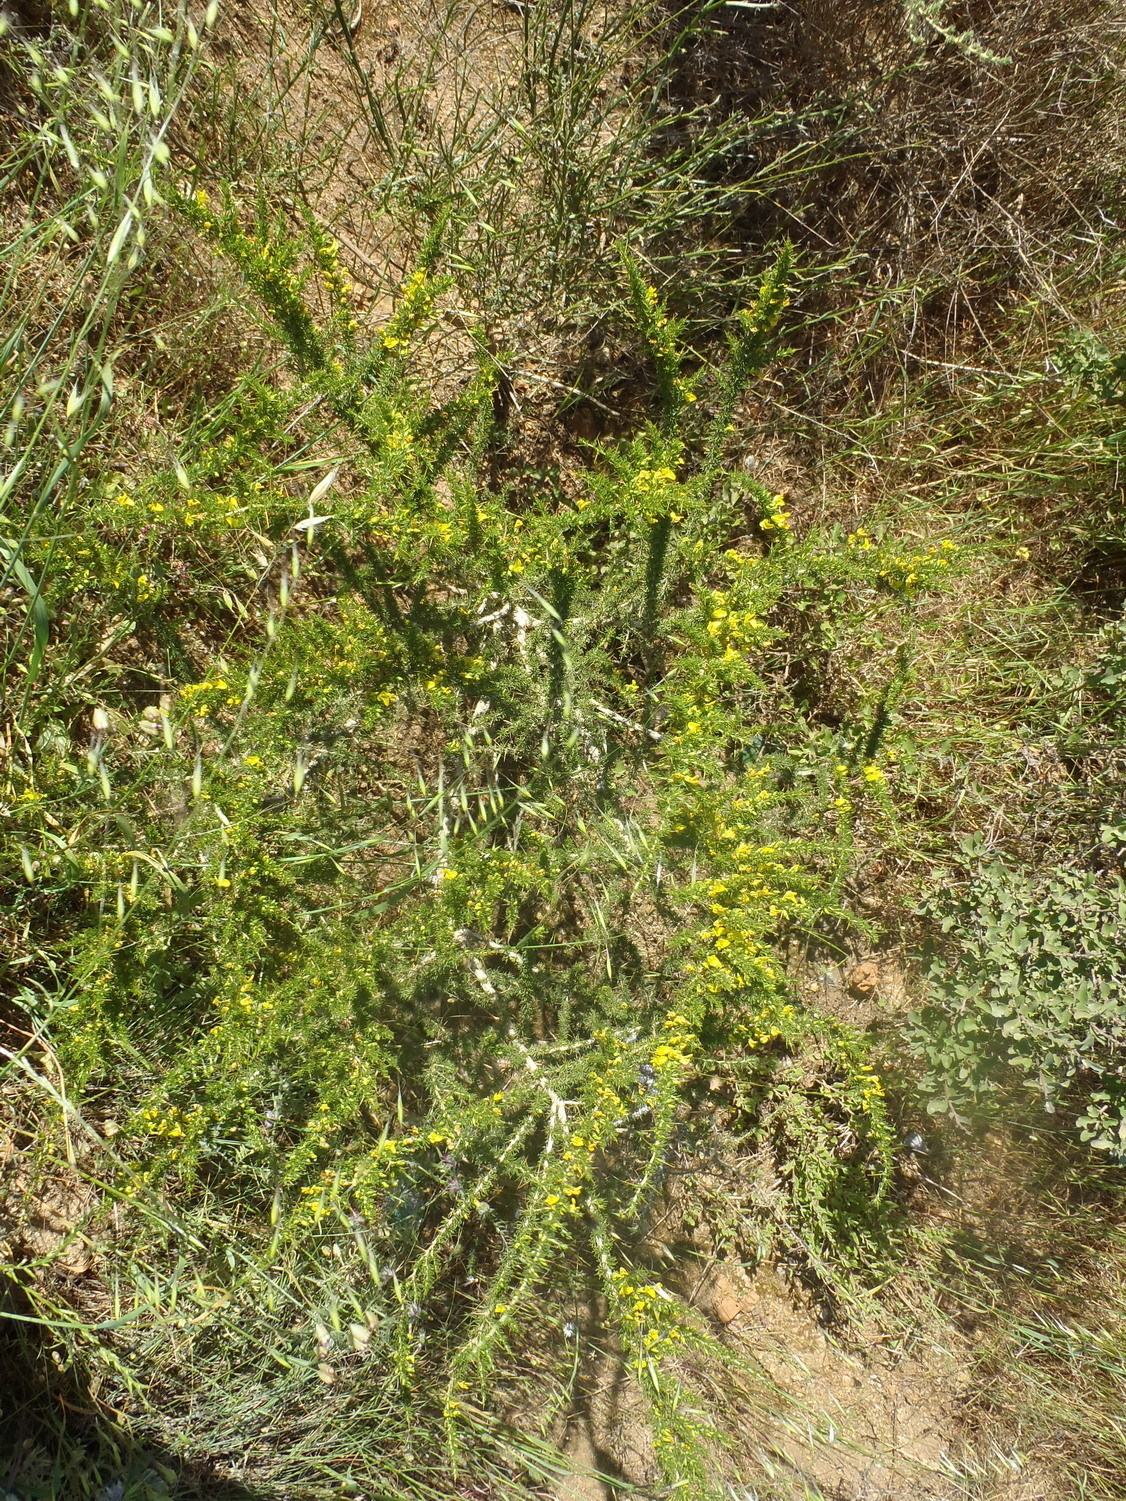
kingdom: Plantae
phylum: Tracheophyta
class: Magnoliopsida
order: Fabales
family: Fabaceae
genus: Aspalathus
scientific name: Aspalathus spinosa
